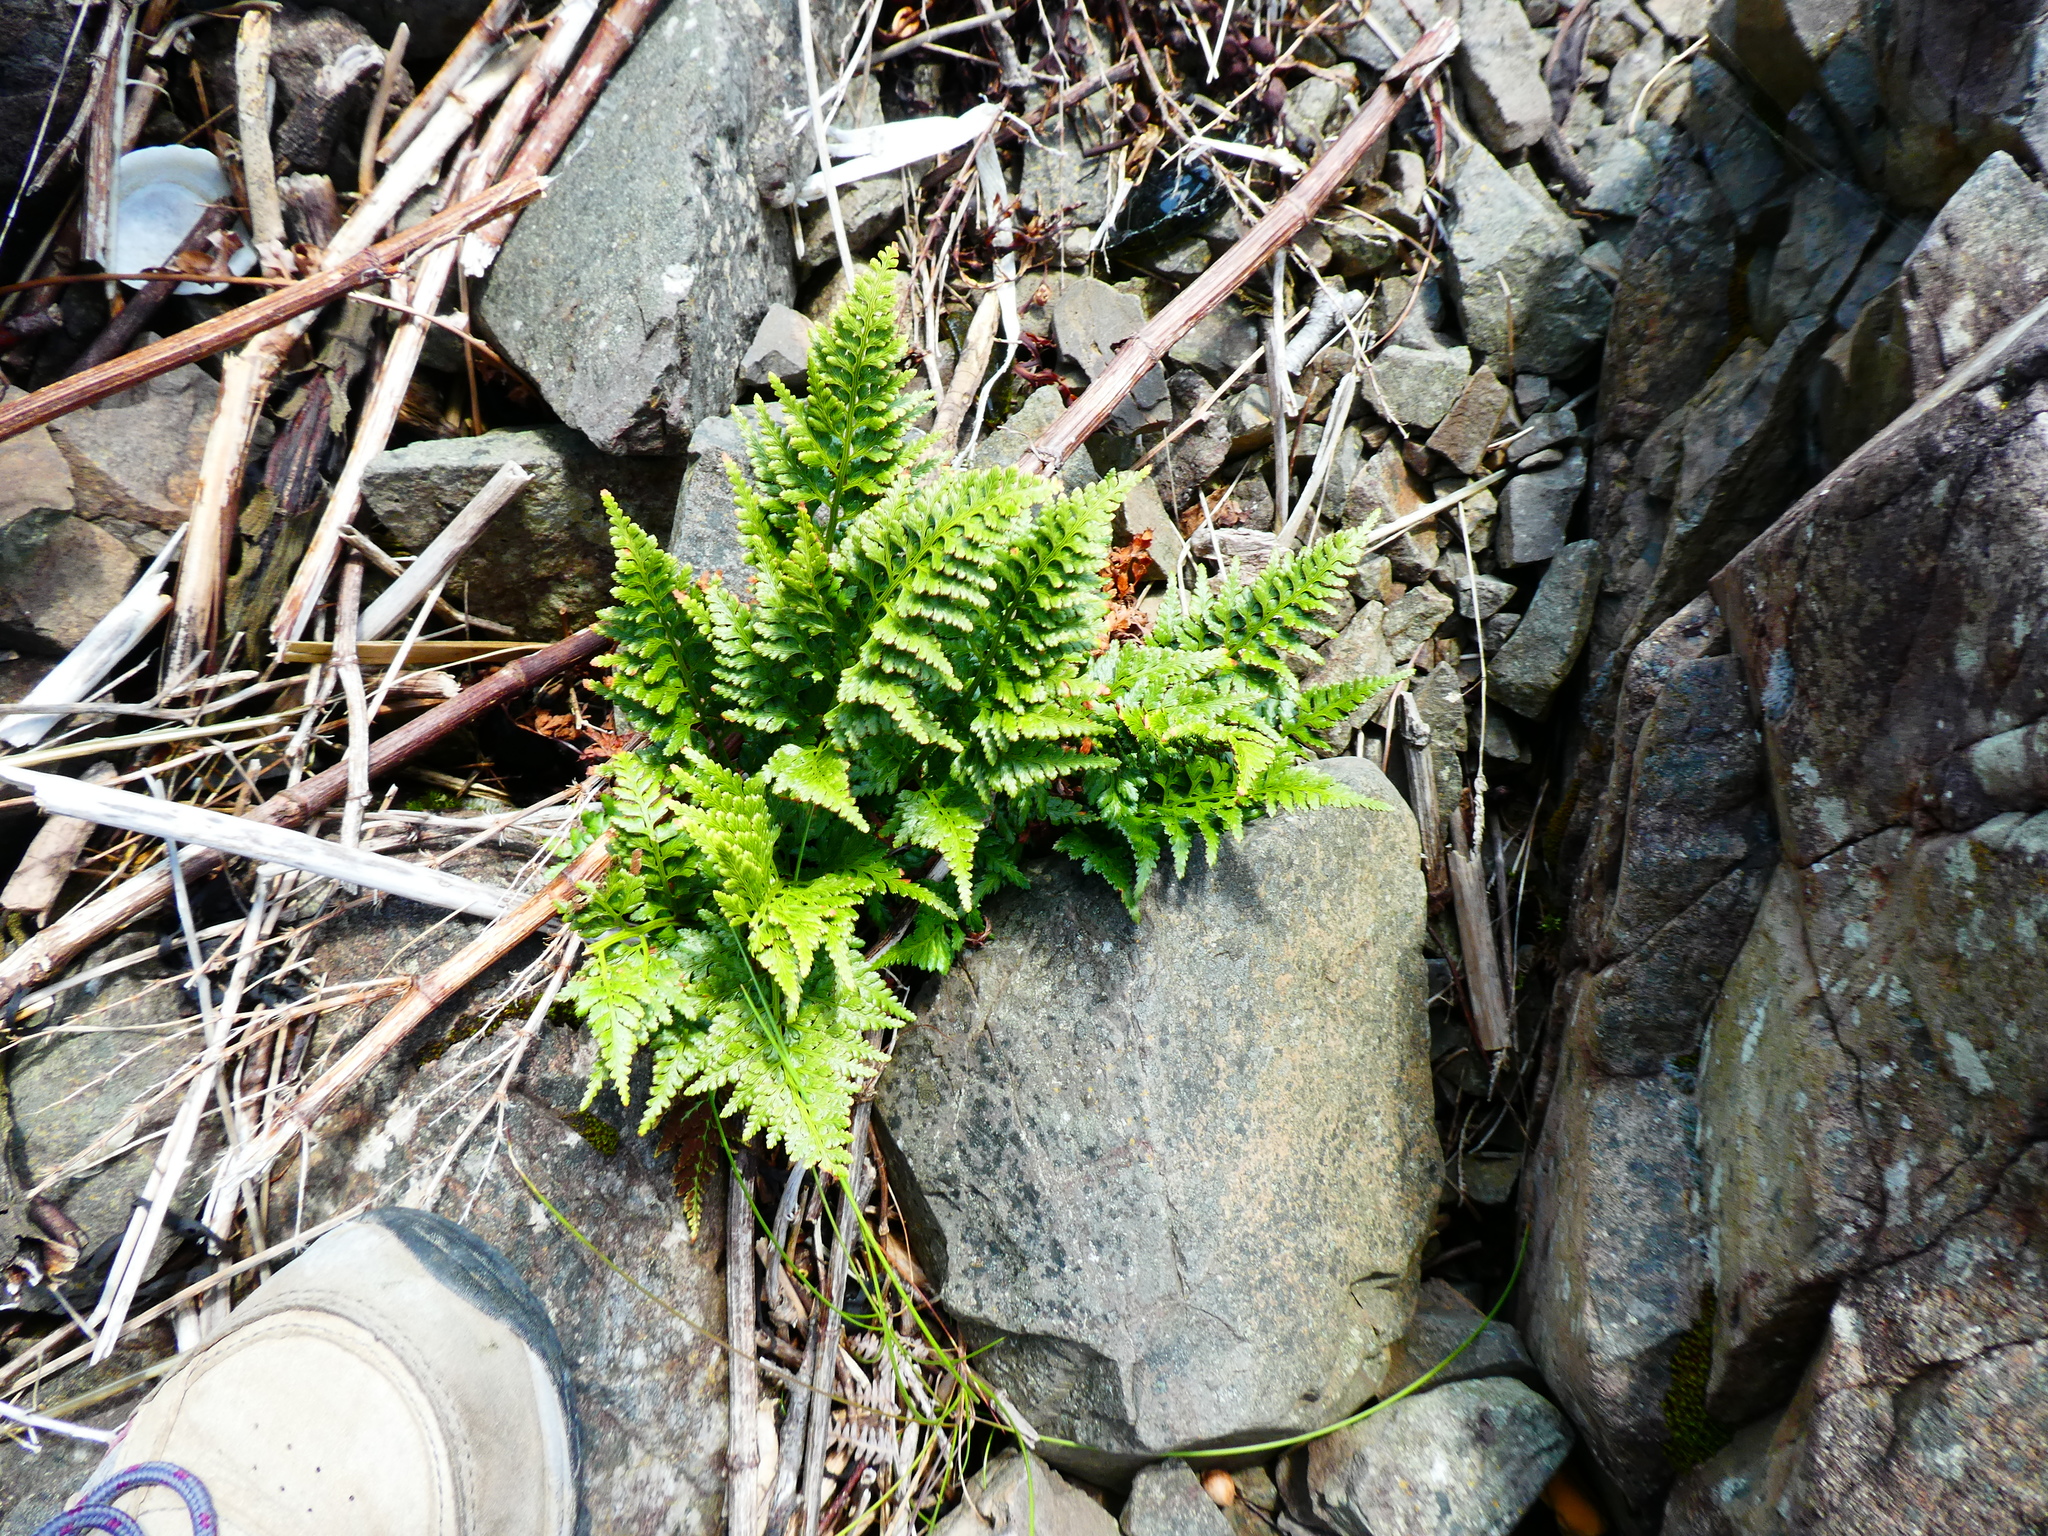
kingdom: Plantae
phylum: Tracheophyta
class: Polypodiopsida
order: Polypodiales
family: Aspleniaceae
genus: Asplenium
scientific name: Asplenium adiantum-nigrum
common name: Black spleenwort
